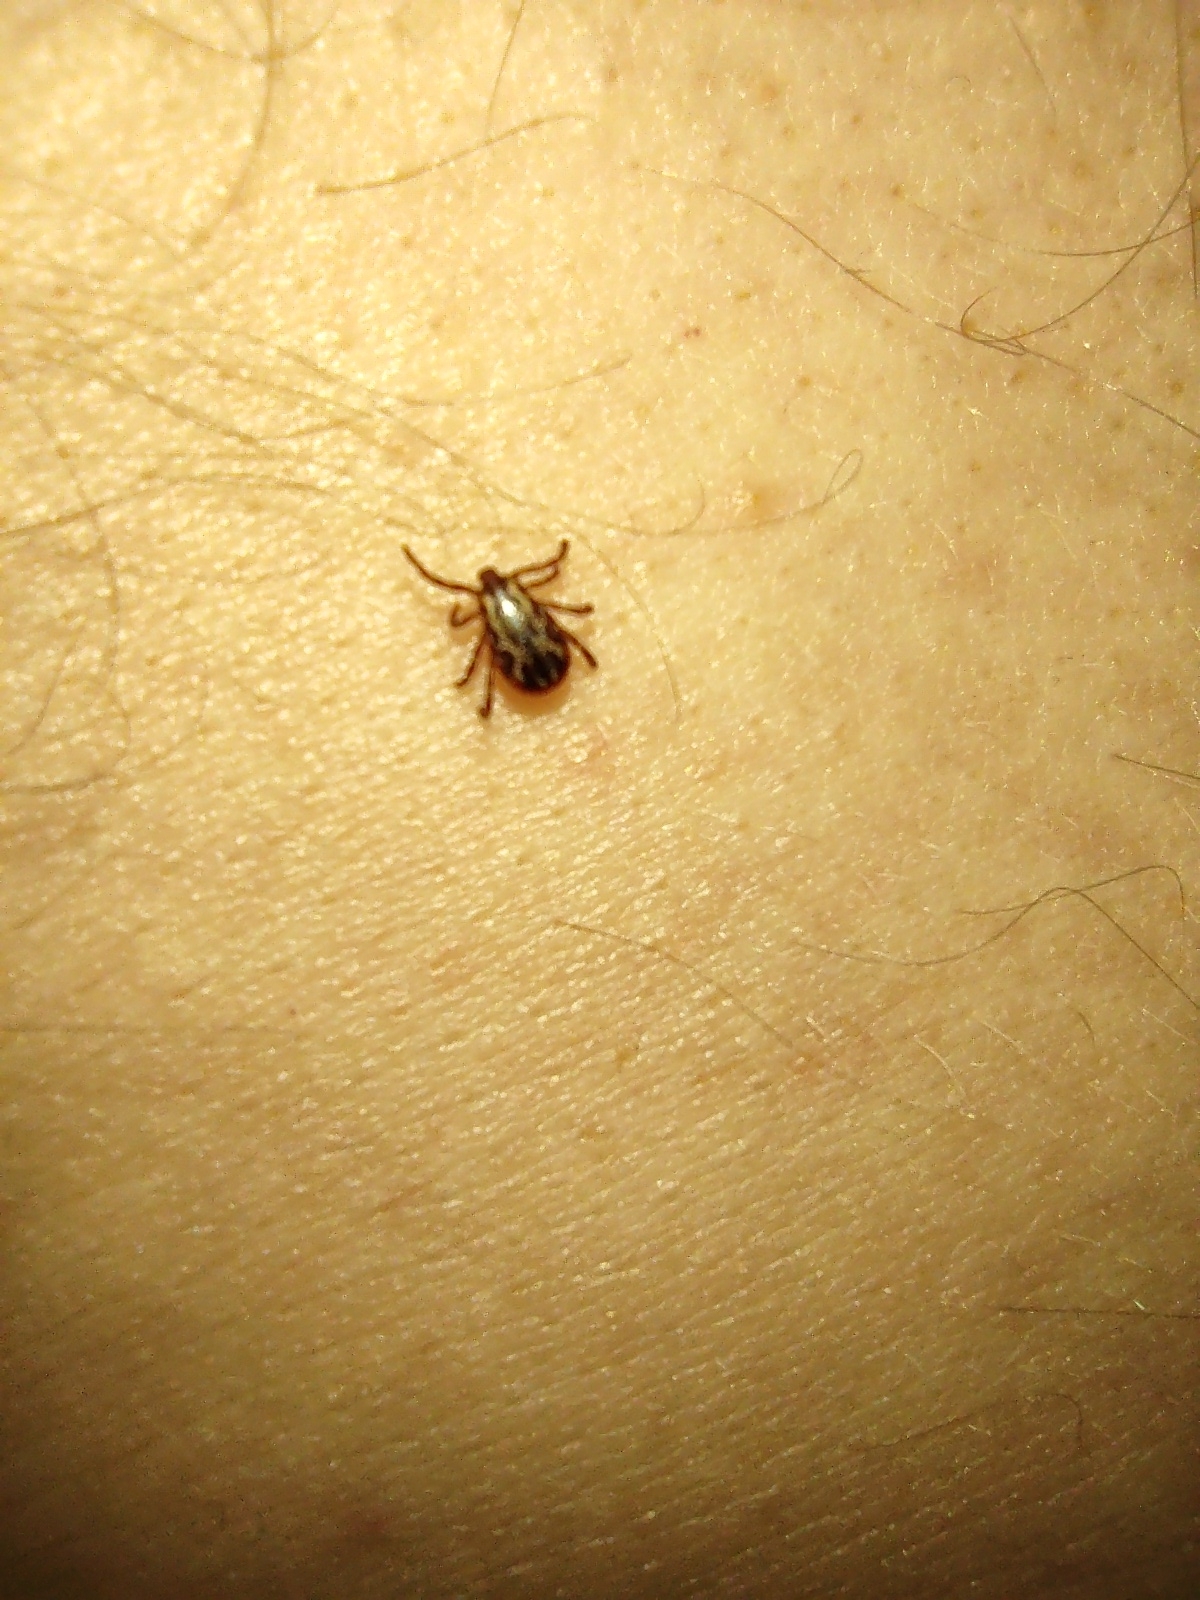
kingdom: Animalia
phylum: Arthropoda
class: Arachnida
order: Ixodida
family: Ixodidae
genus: Dermacentor
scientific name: Dermacentor variabilis
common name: American dog tick
